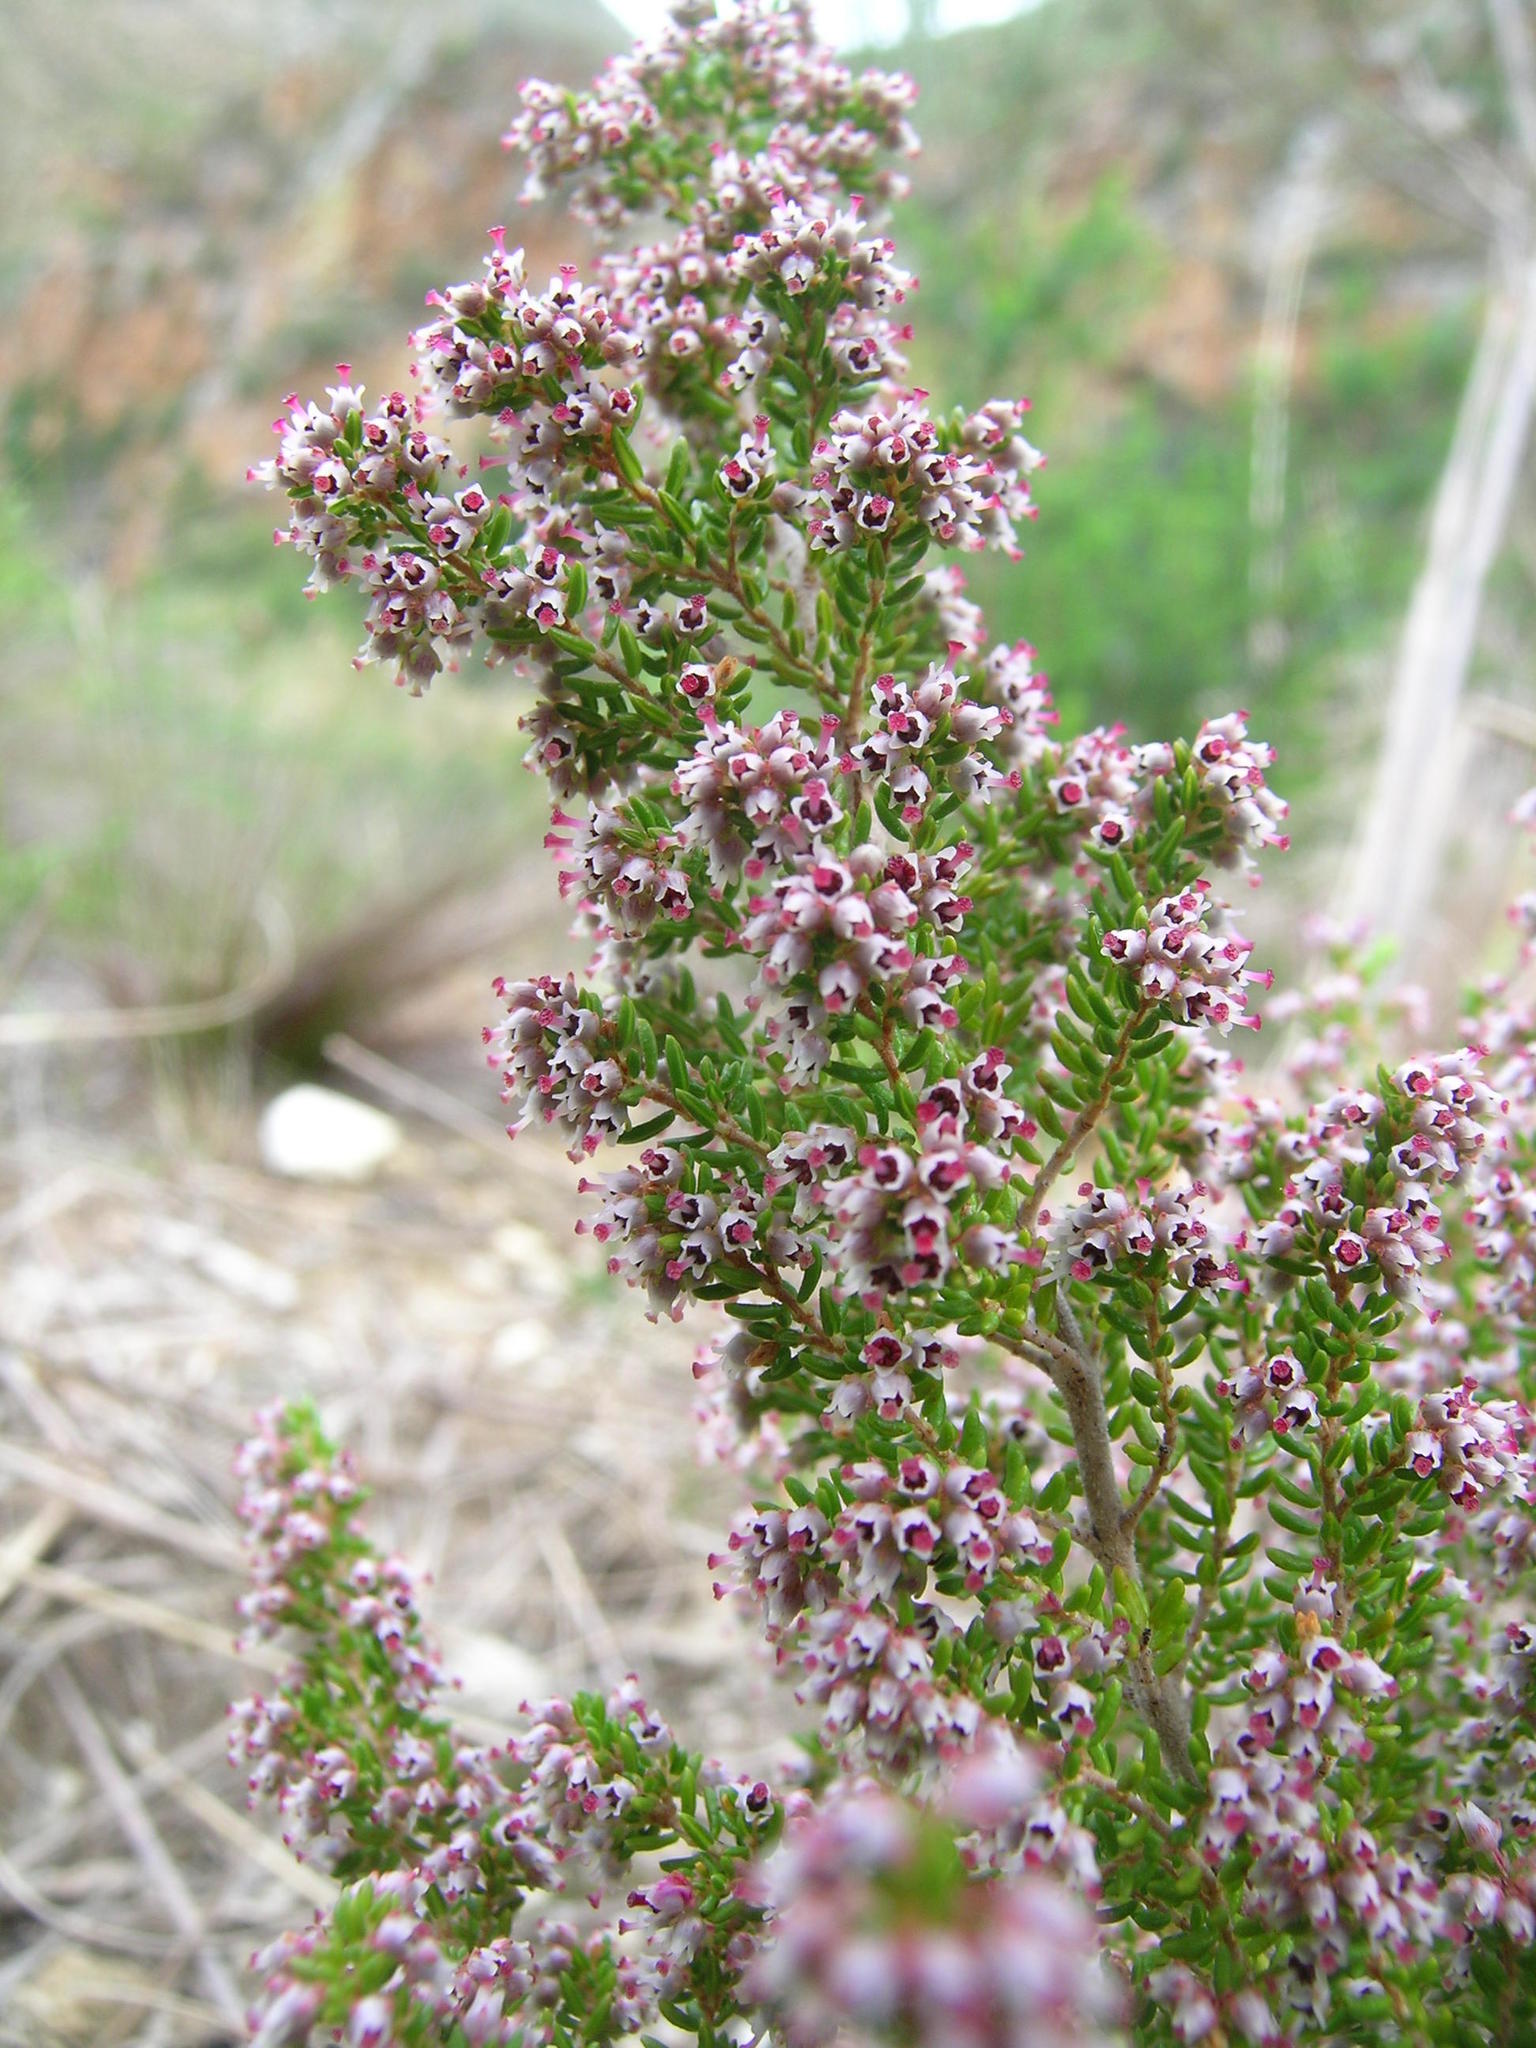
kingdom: Plantae
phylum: Tracheophyta
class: Magnoliopsida
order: Ericales
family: Ericaceae
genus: Erica
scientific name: Erica hispidula
